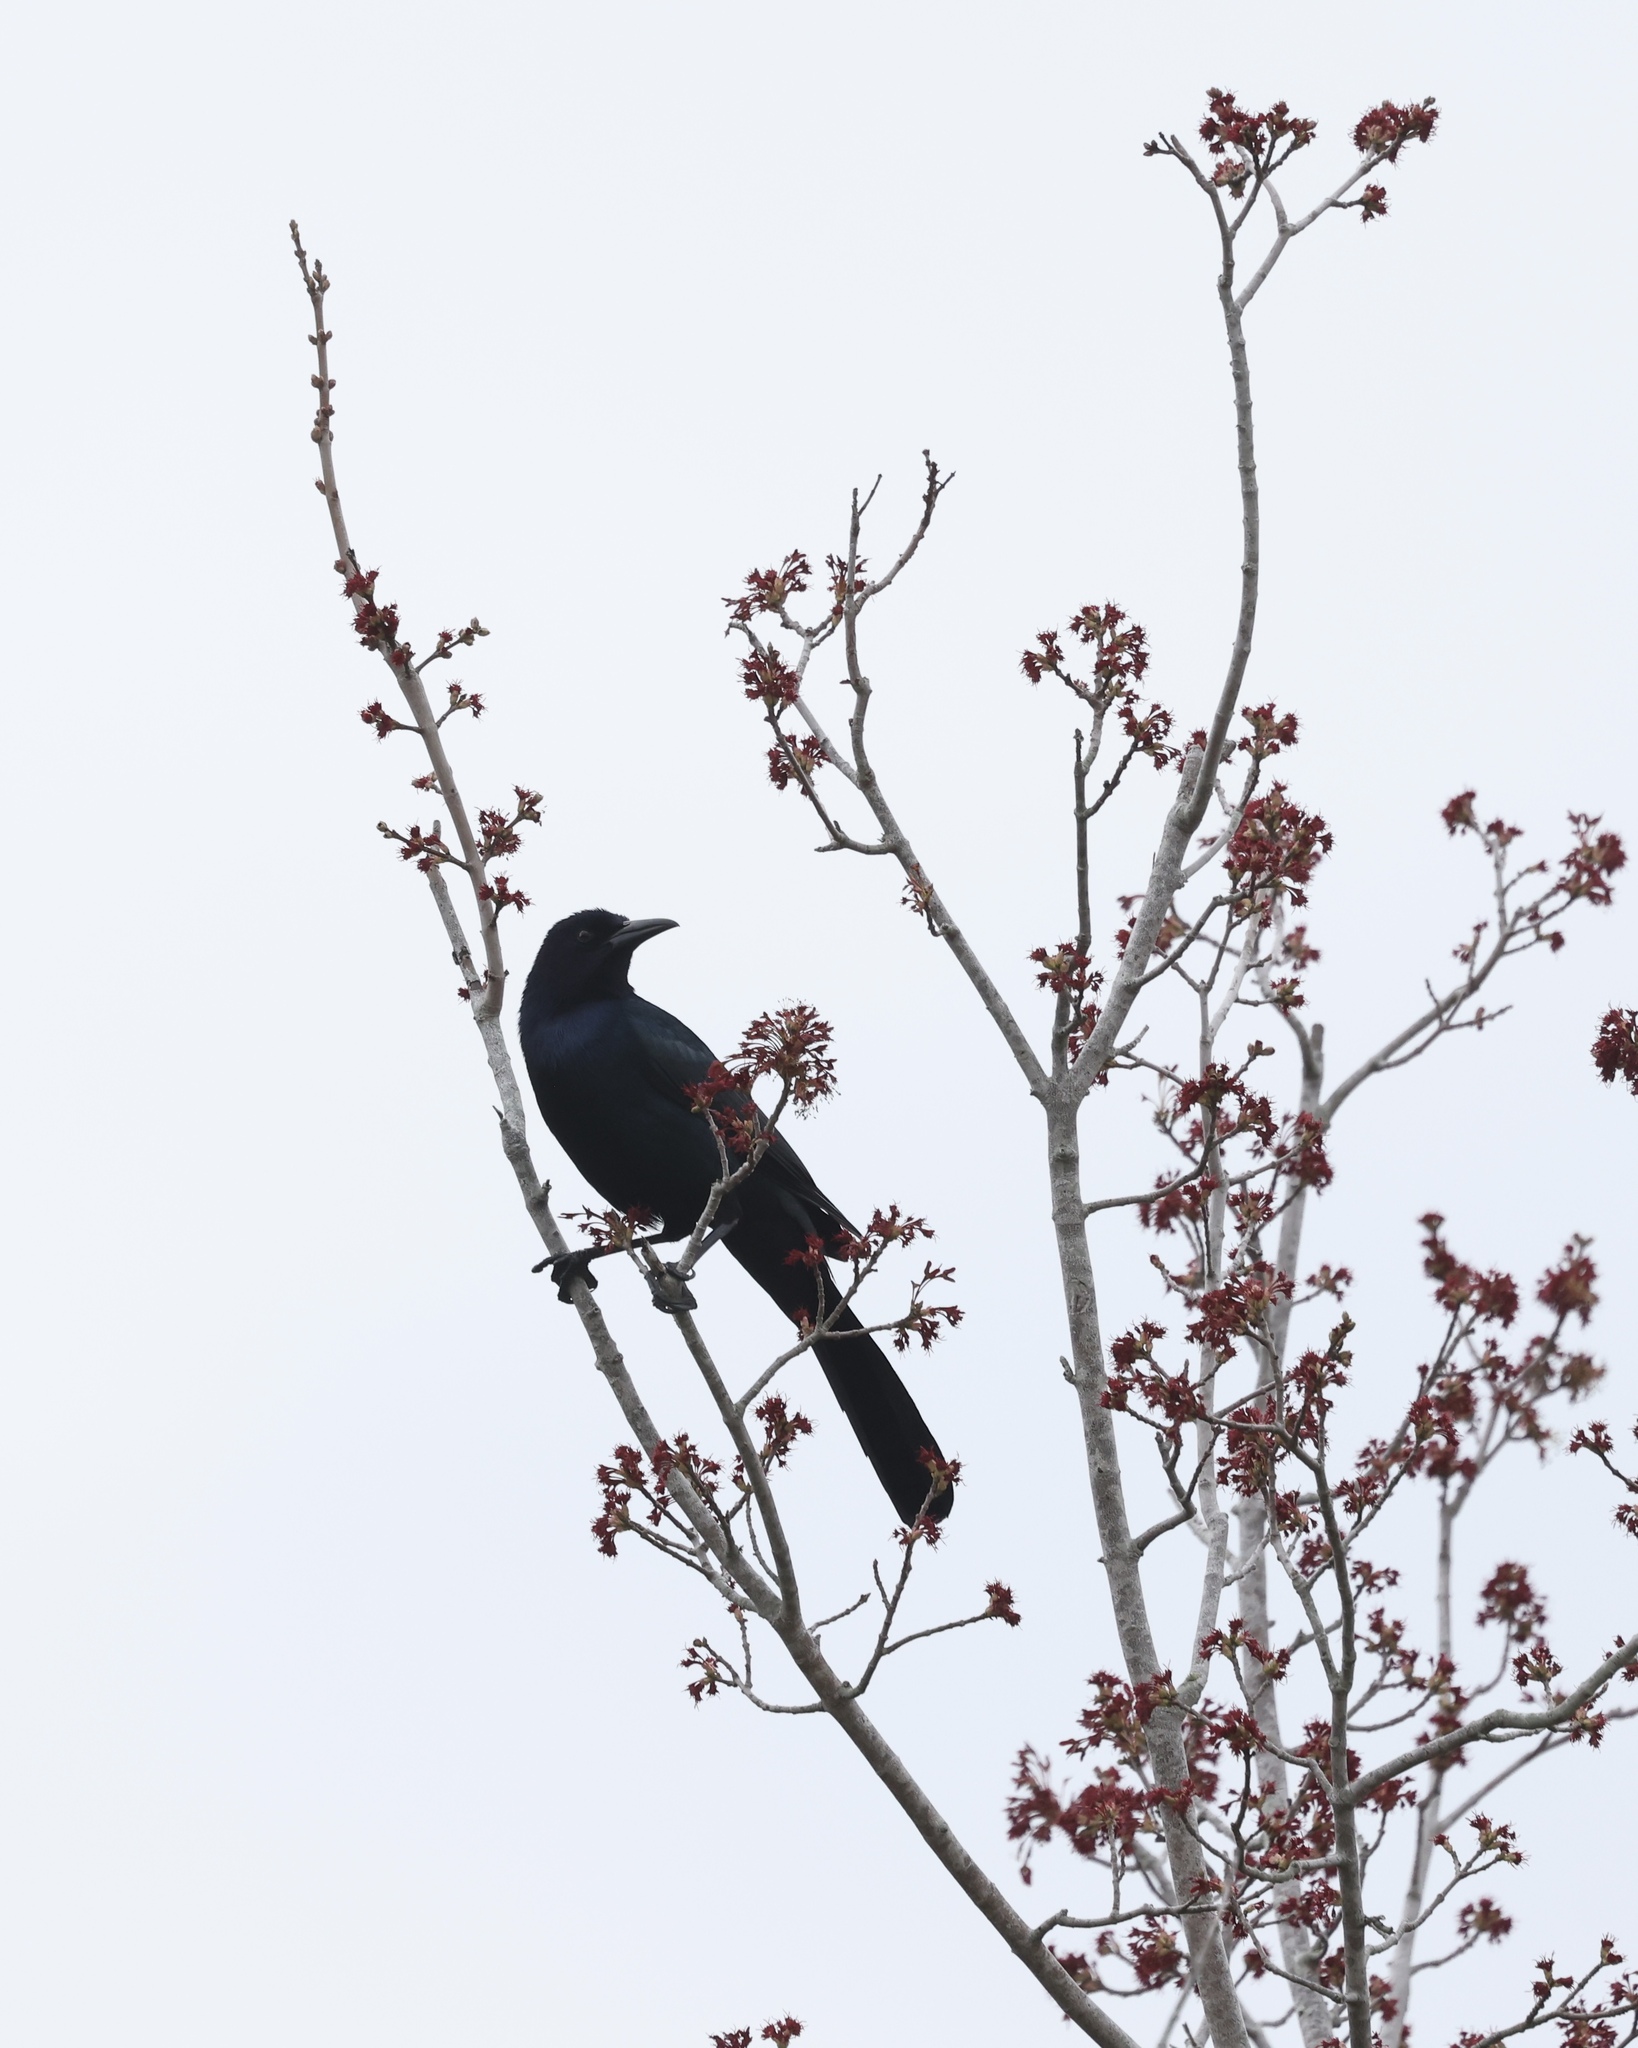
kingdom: Animalia
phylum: Chordata
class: Aves
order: Passeriformes
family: Icteridae
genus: Quiscalus
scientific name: Quiscalus major
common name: Boat-tailed grackle
